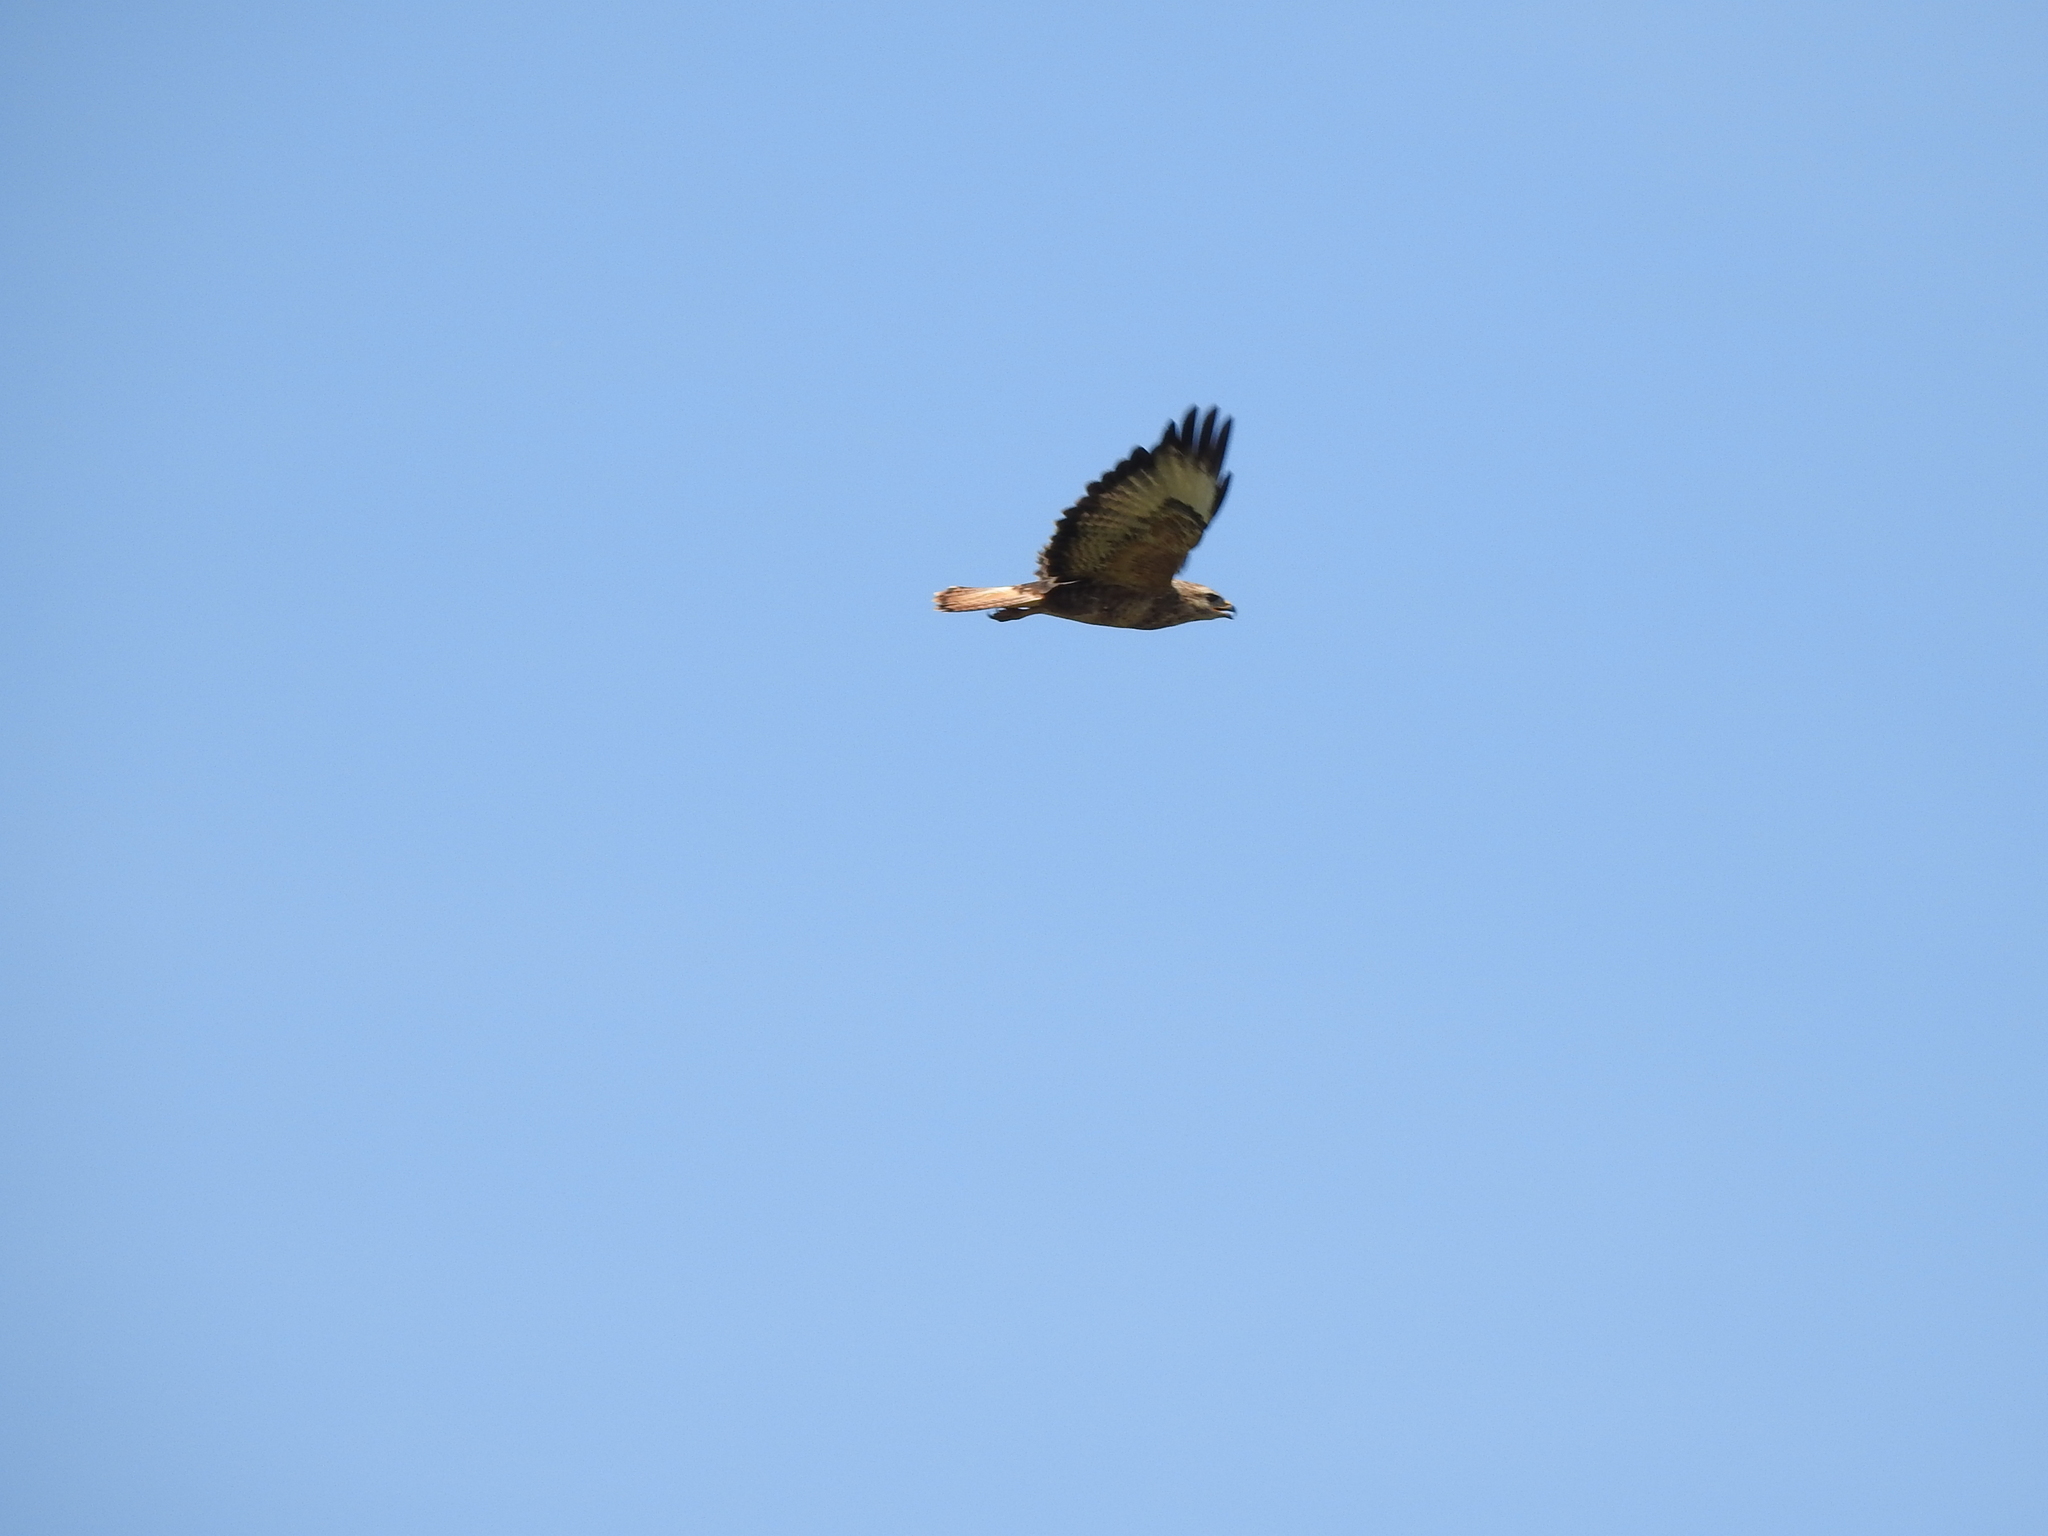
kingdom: Animalia
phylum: Chordata
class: Aves
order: Accipitriformes
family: Accipitridae
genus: Buteo
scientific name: Buteo buteo
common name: Common buzzard
